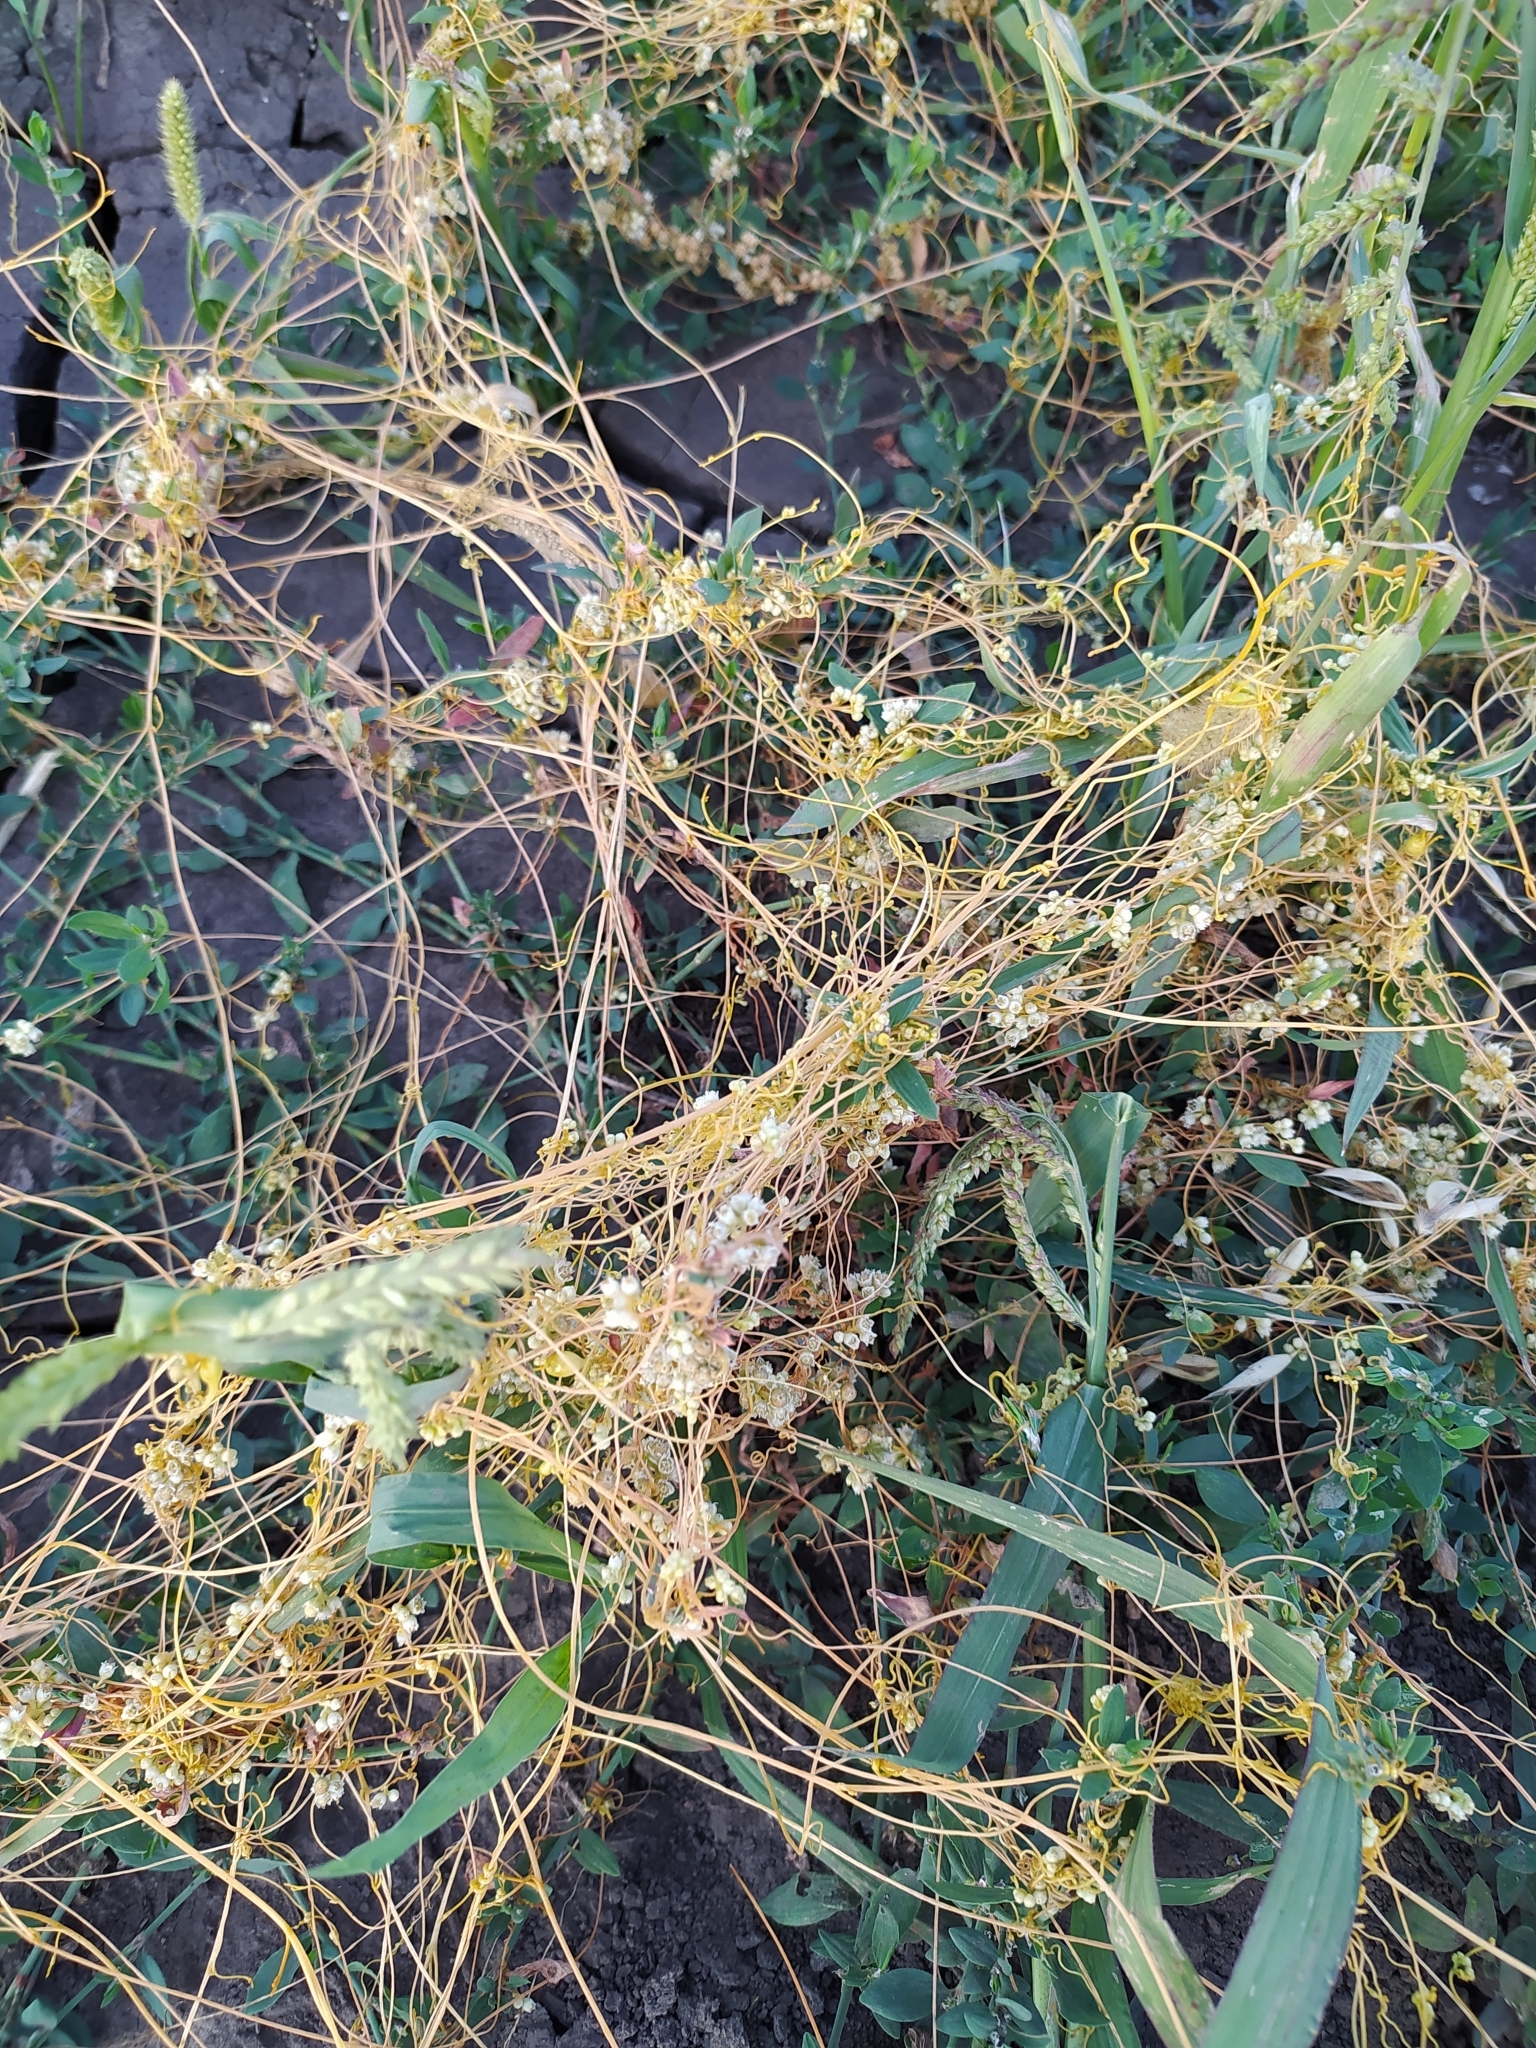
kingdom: Plantae
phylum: Tracheophyta
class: Magnoliopsida
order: Solanales
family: Convolvulaceae
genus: Cuscuta
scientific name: Cuscuta campestris
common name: Yellow dodder
